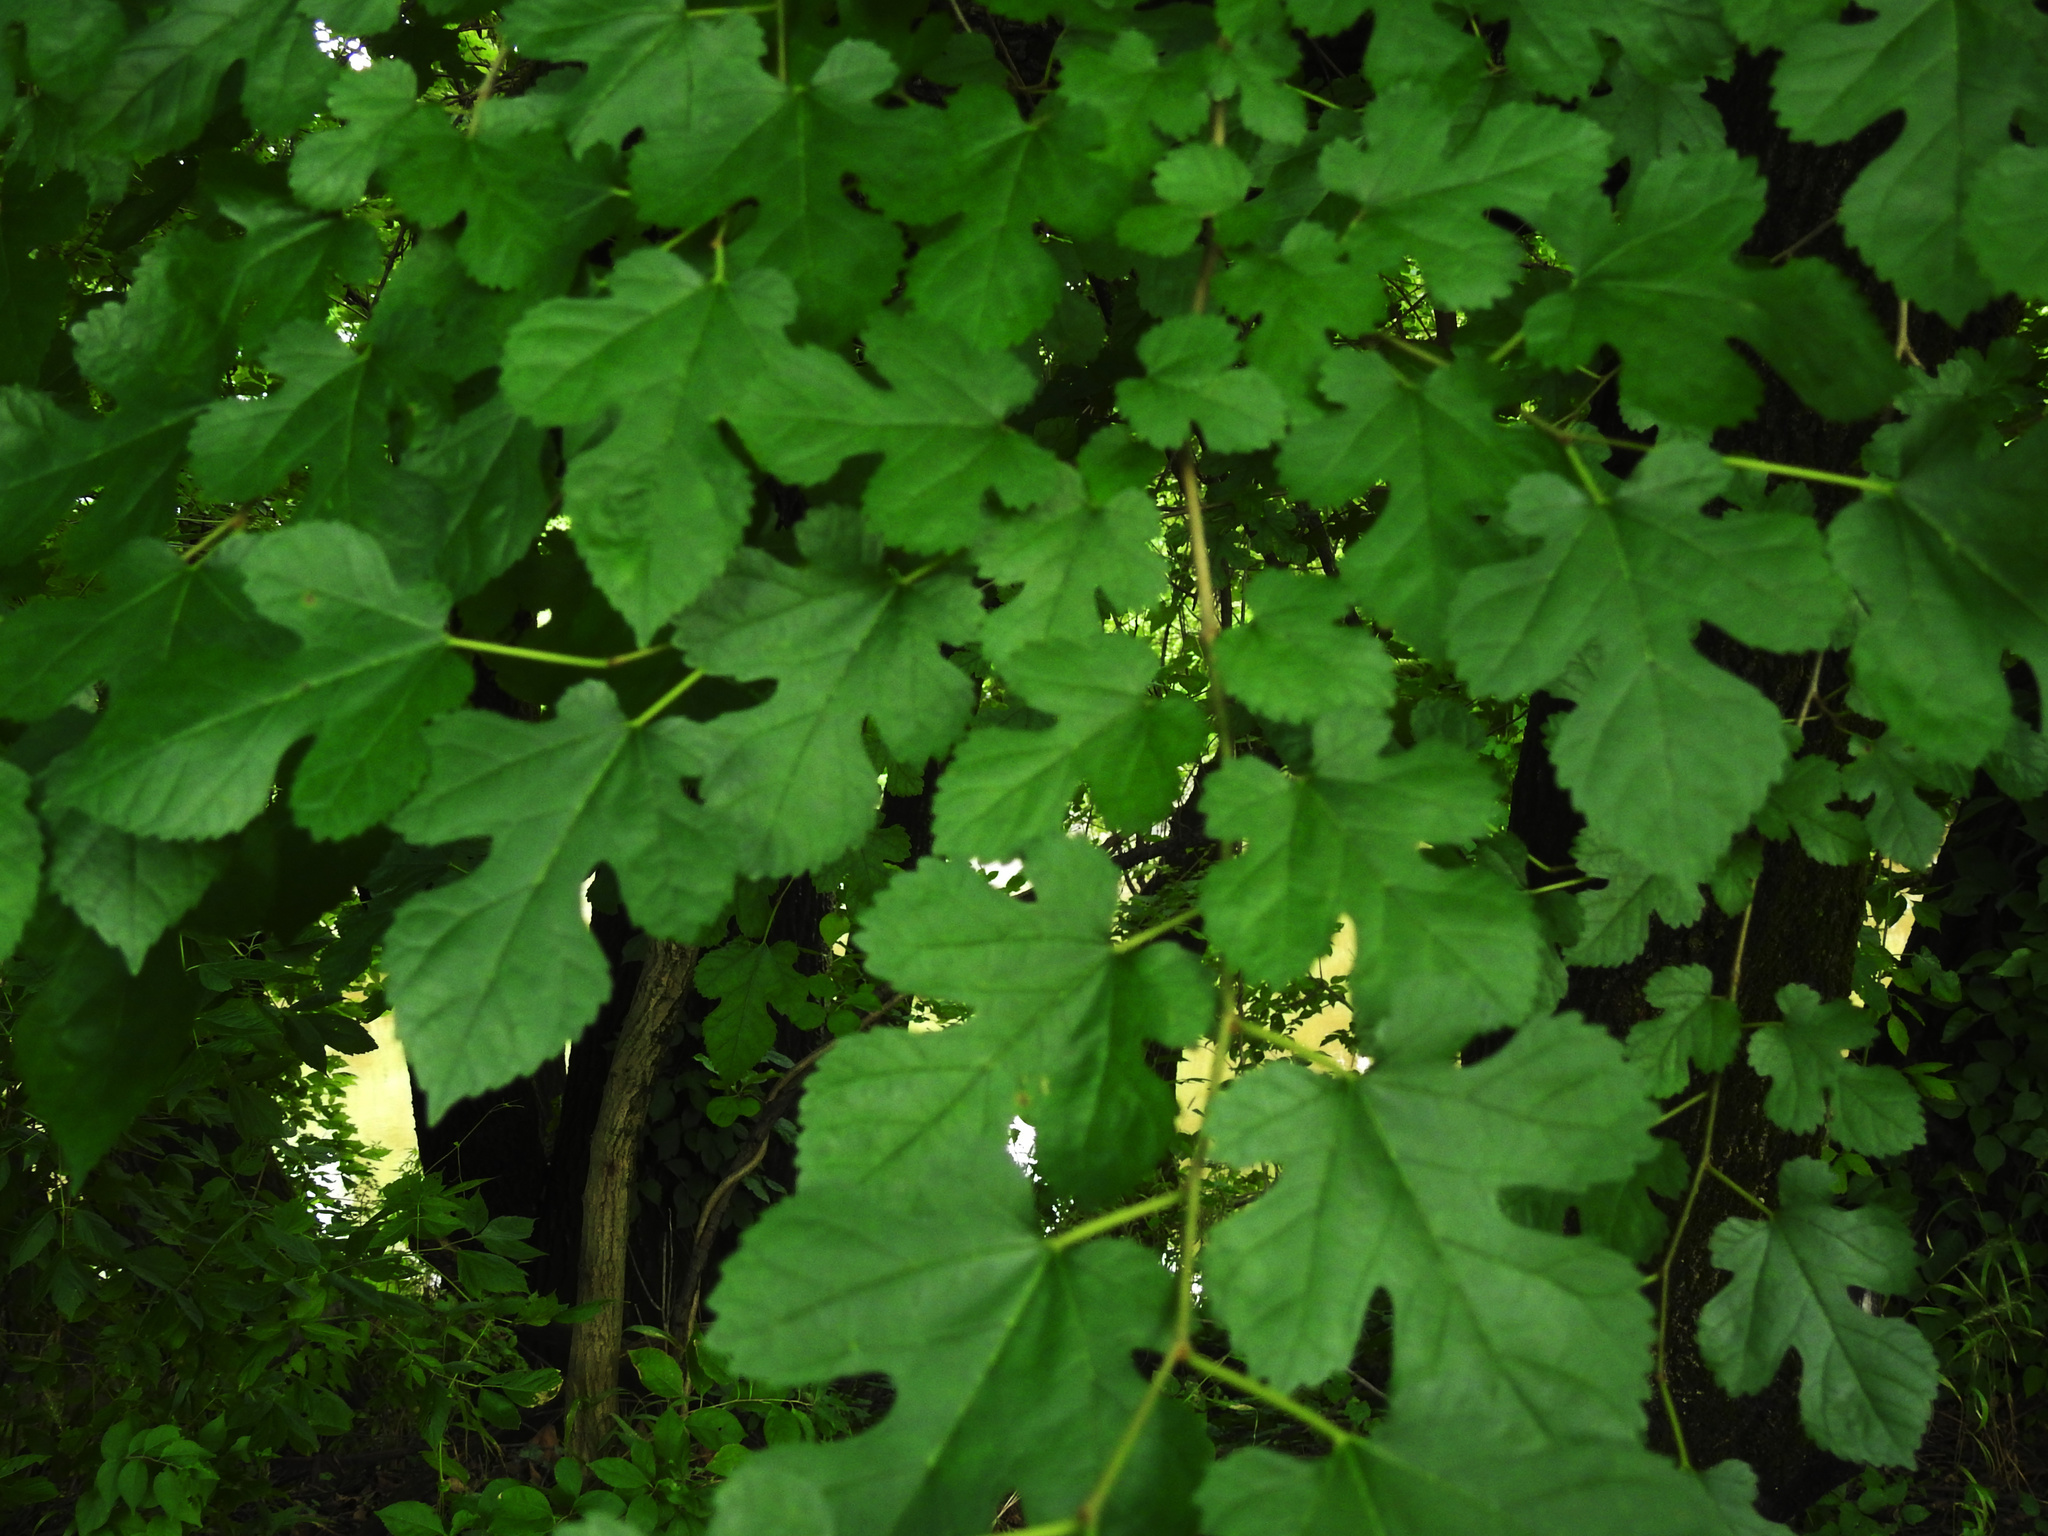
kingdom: Plantae
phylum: Tracheophyta
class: Magnoliopsida
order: Rosales
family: Moraceae
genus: Morus
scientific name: Morus alba
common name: White mulberry
